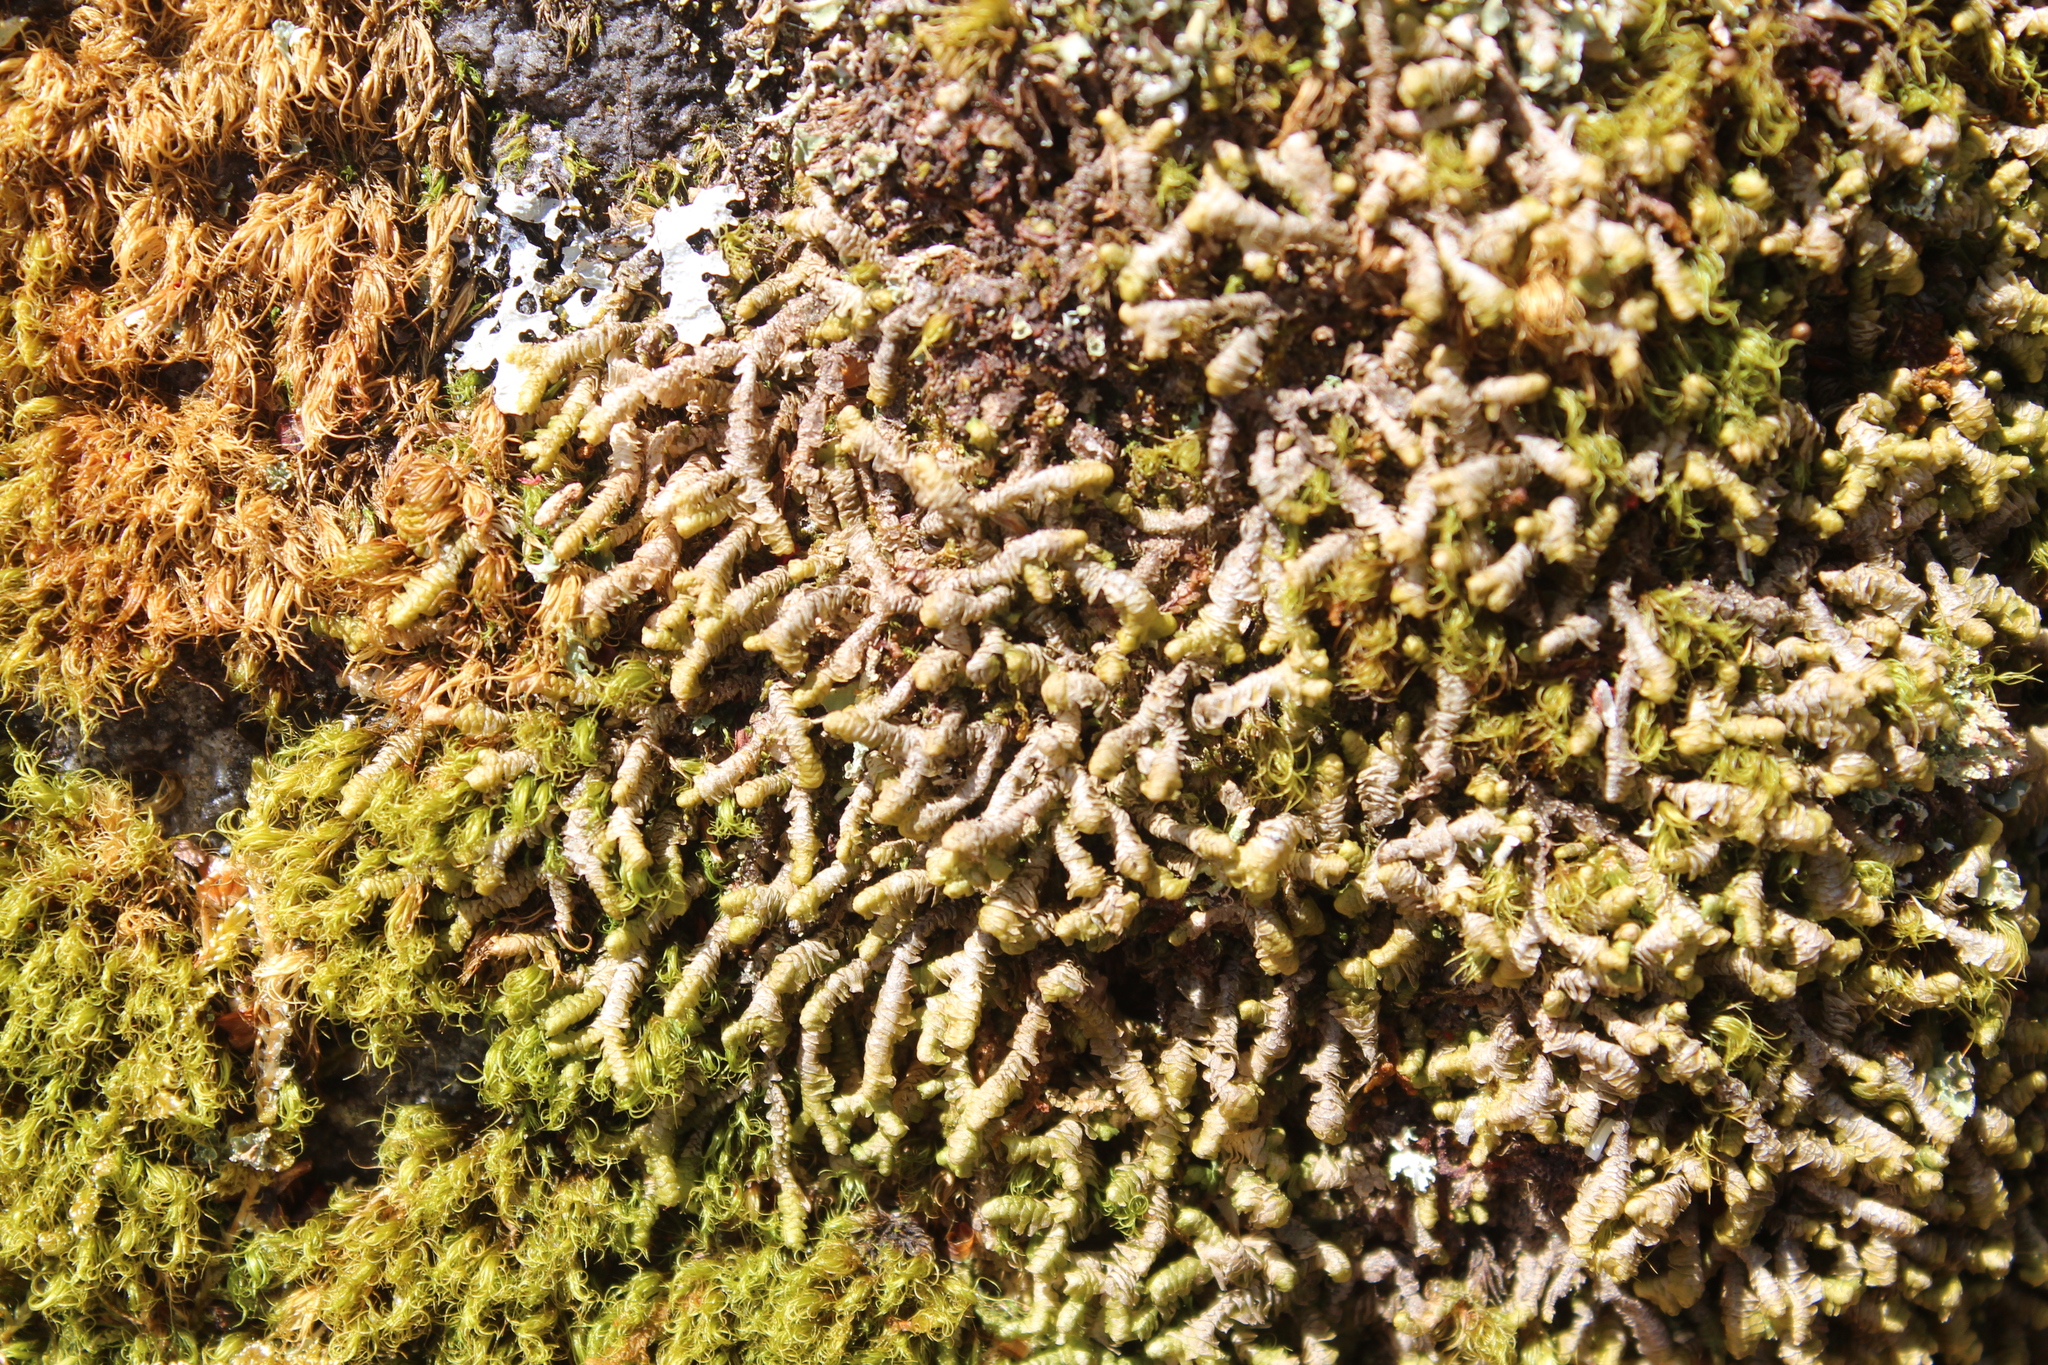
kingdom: Plantae
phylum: Marchantiophyta
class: Jungermanniopsida
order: Jungermanniales
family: Lepidoziaceae
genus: Bazzania
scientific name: Bazzania trilobata
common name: Three-lobed whipwort
